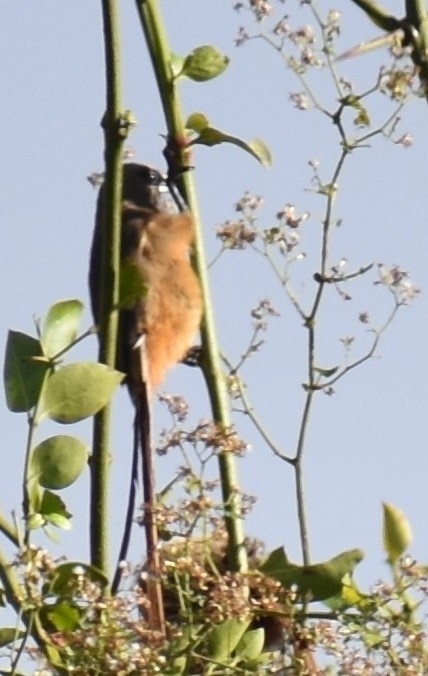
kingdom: Animalia
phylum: Chordata
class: Aves
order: Coliiformes
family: Coliidae
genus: Colius
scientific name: Colius striatus
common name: Speckled mousebird
